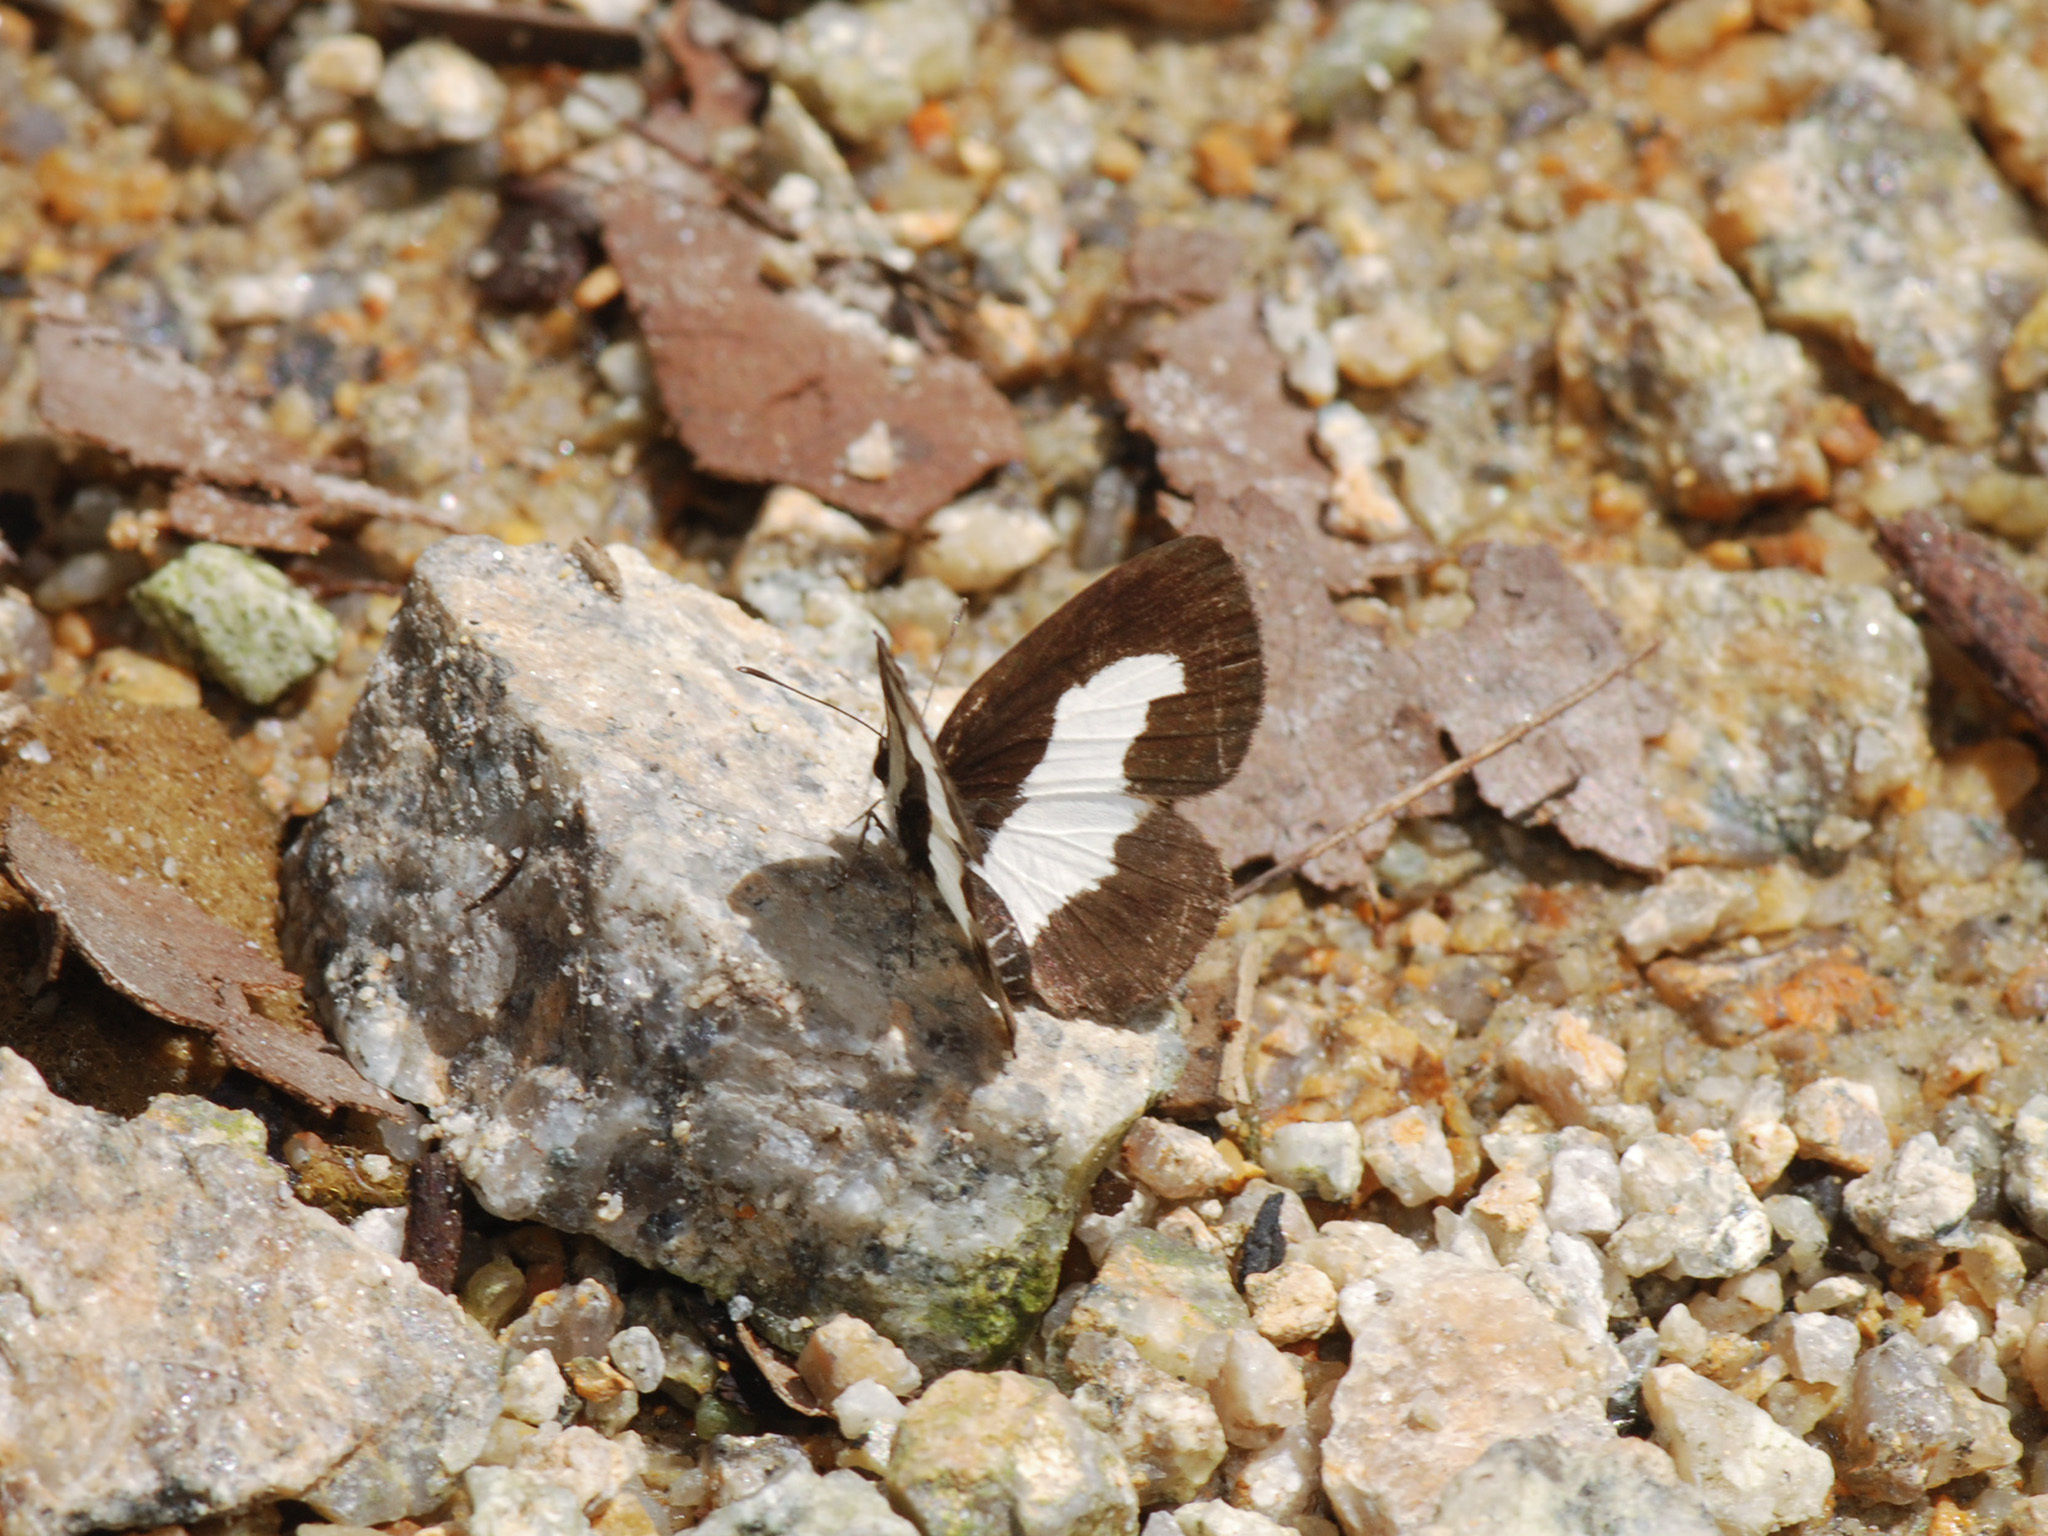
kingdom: Animalia
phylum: Arthropoda
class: Insecta
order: Lepidoptera
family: Lycaenidae
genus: Caleta
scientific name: Caleta roxus
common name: Straight pierrot
